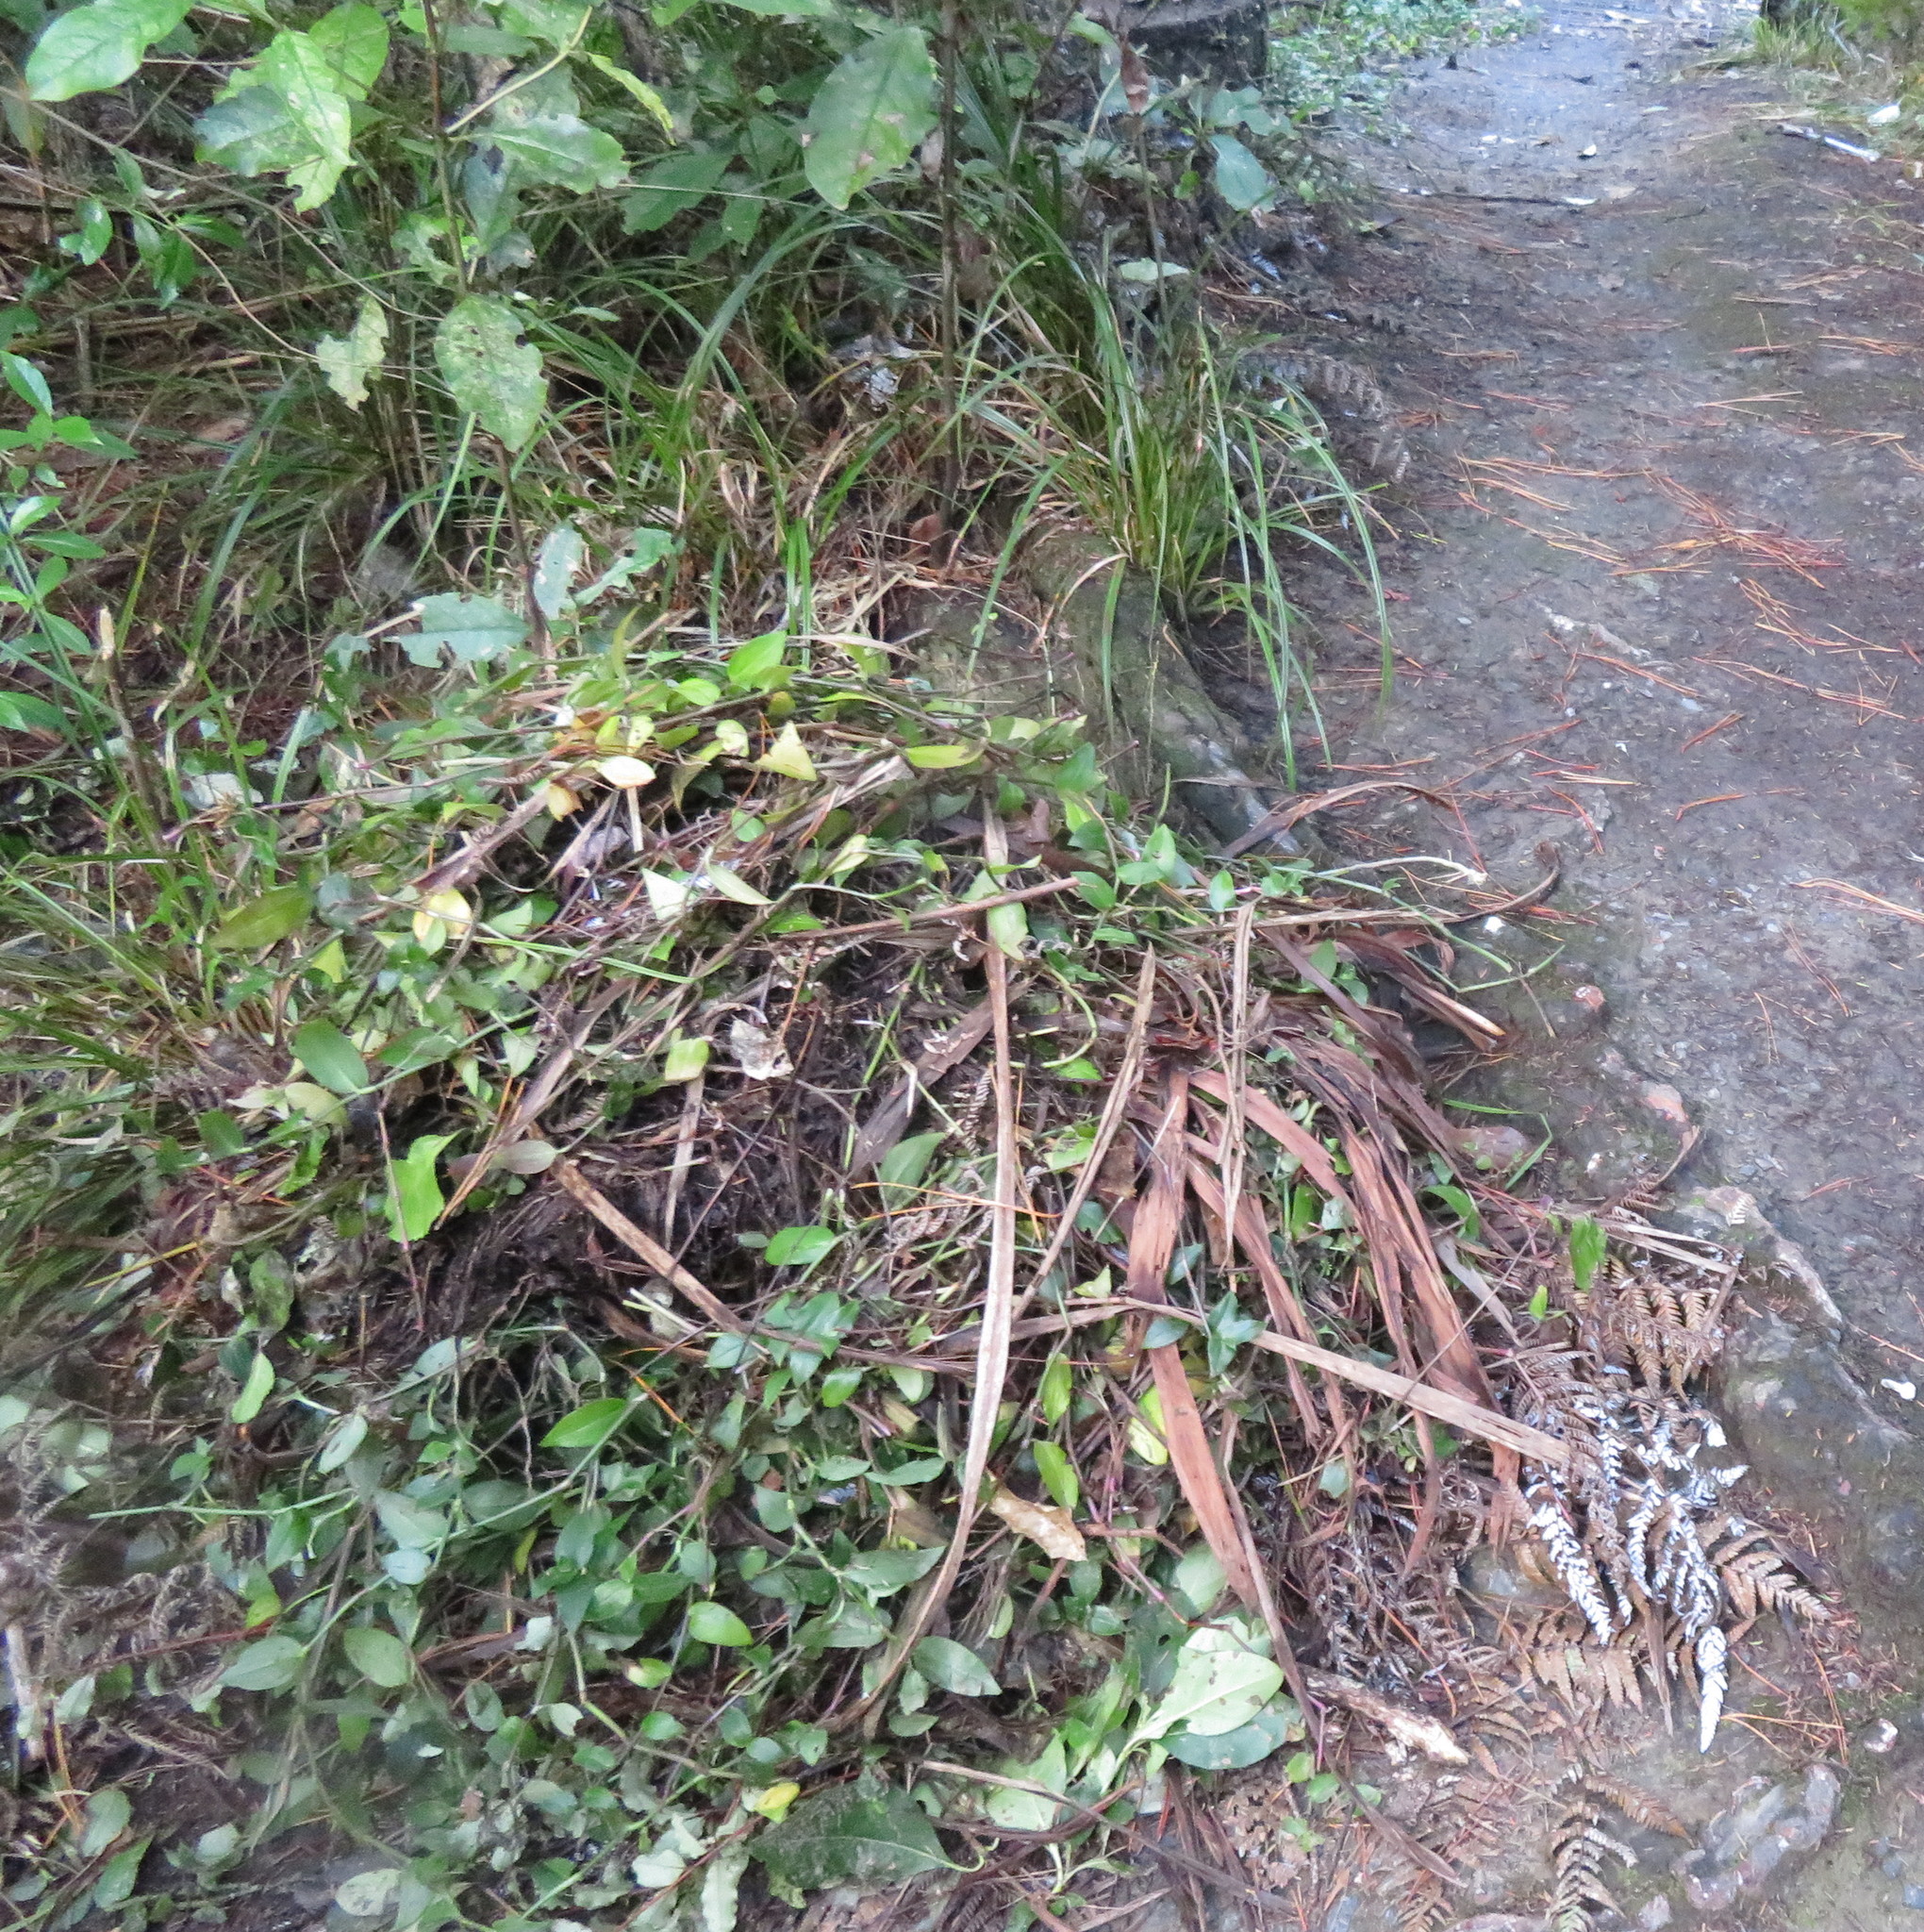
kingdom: Plantae
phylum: Tracheophyta
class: Liliopsida
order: Commelinales
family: Commelinaceae
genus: Tradescantia
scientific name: Tradescantia fluminensis
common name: Wandering-jew
